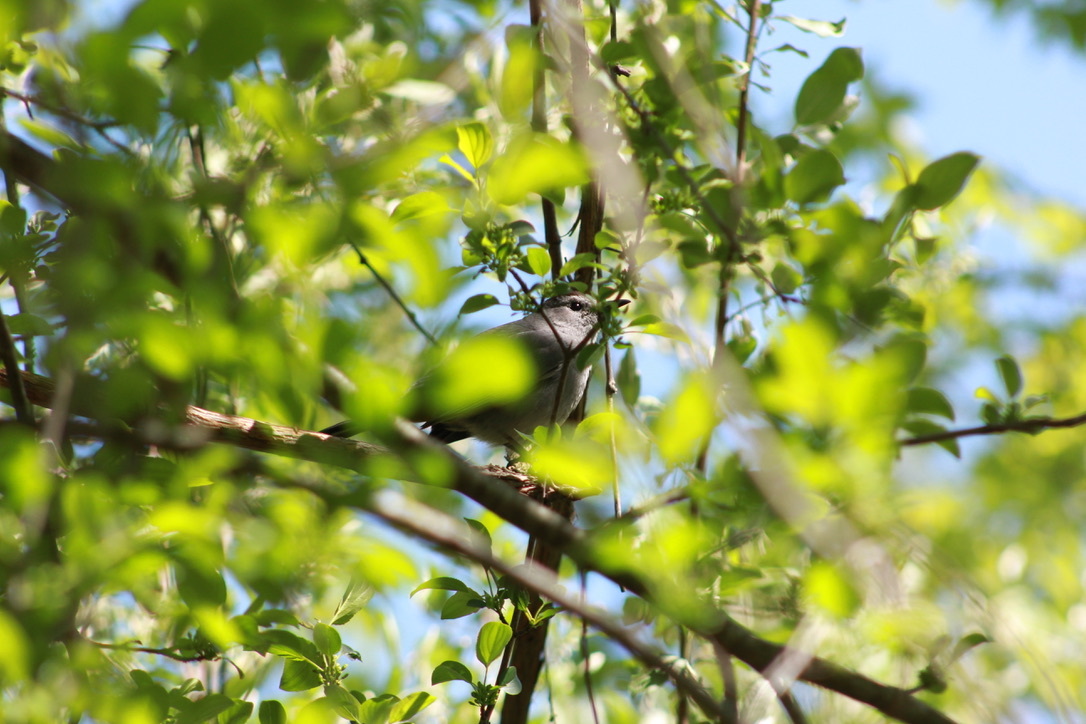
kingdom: Animalia
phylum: Chordata
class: Aves
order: Passeriformes
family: Mimidae
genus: Dumetella
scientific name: Dumetella carolinensis
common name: Gray catbird
